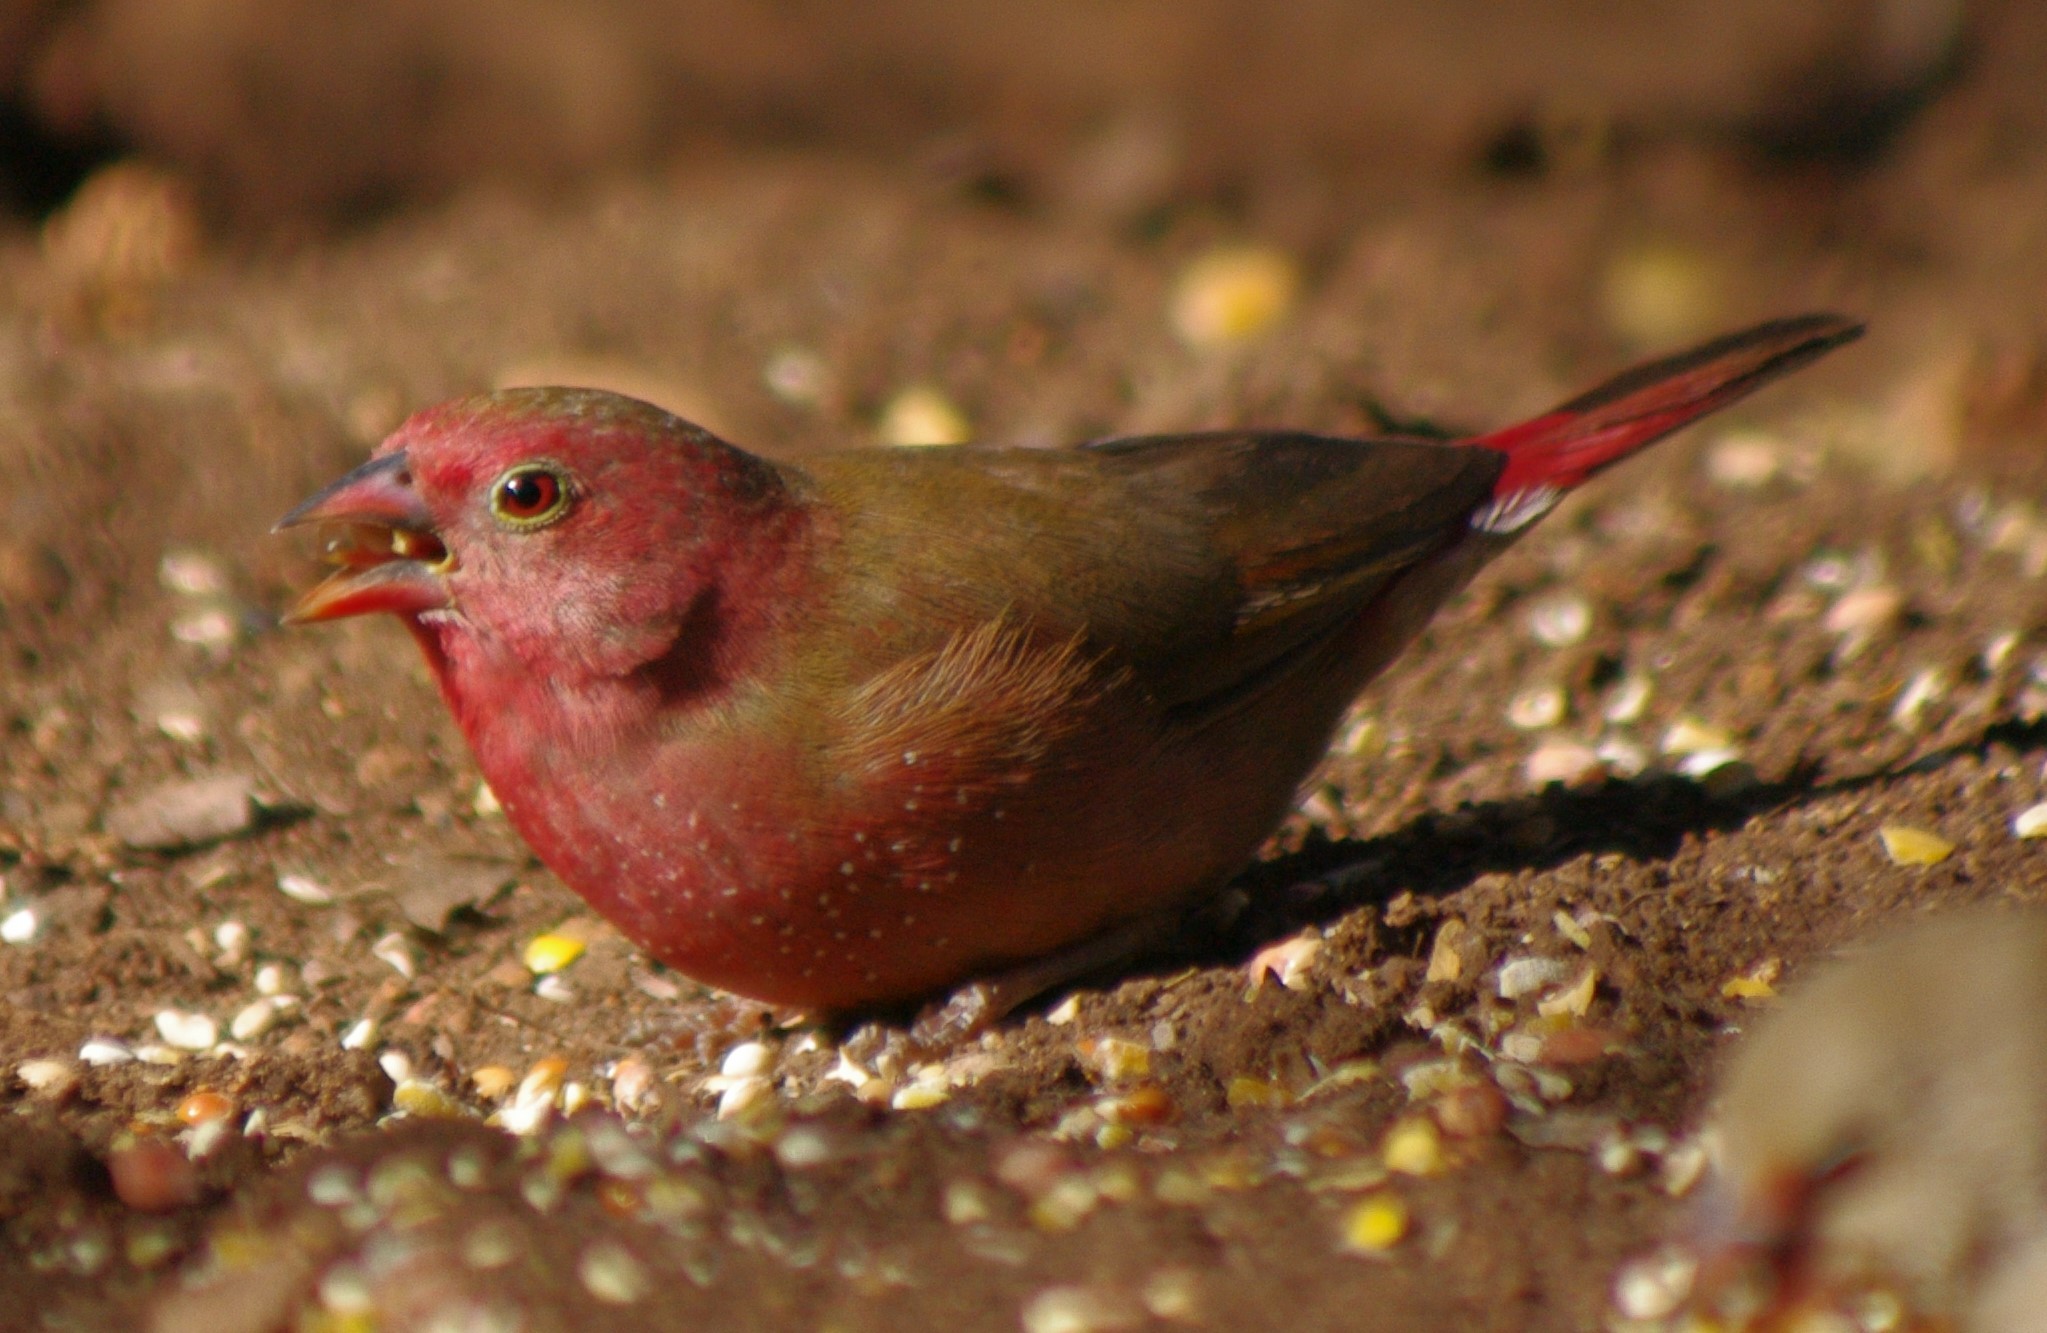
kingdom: Animalia
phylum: Chordata
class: Aves
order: Passeriformes
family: Estrildidae
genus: Lagonosticta
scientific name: Lagonosticta senegala
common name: Red-billed firefinch
